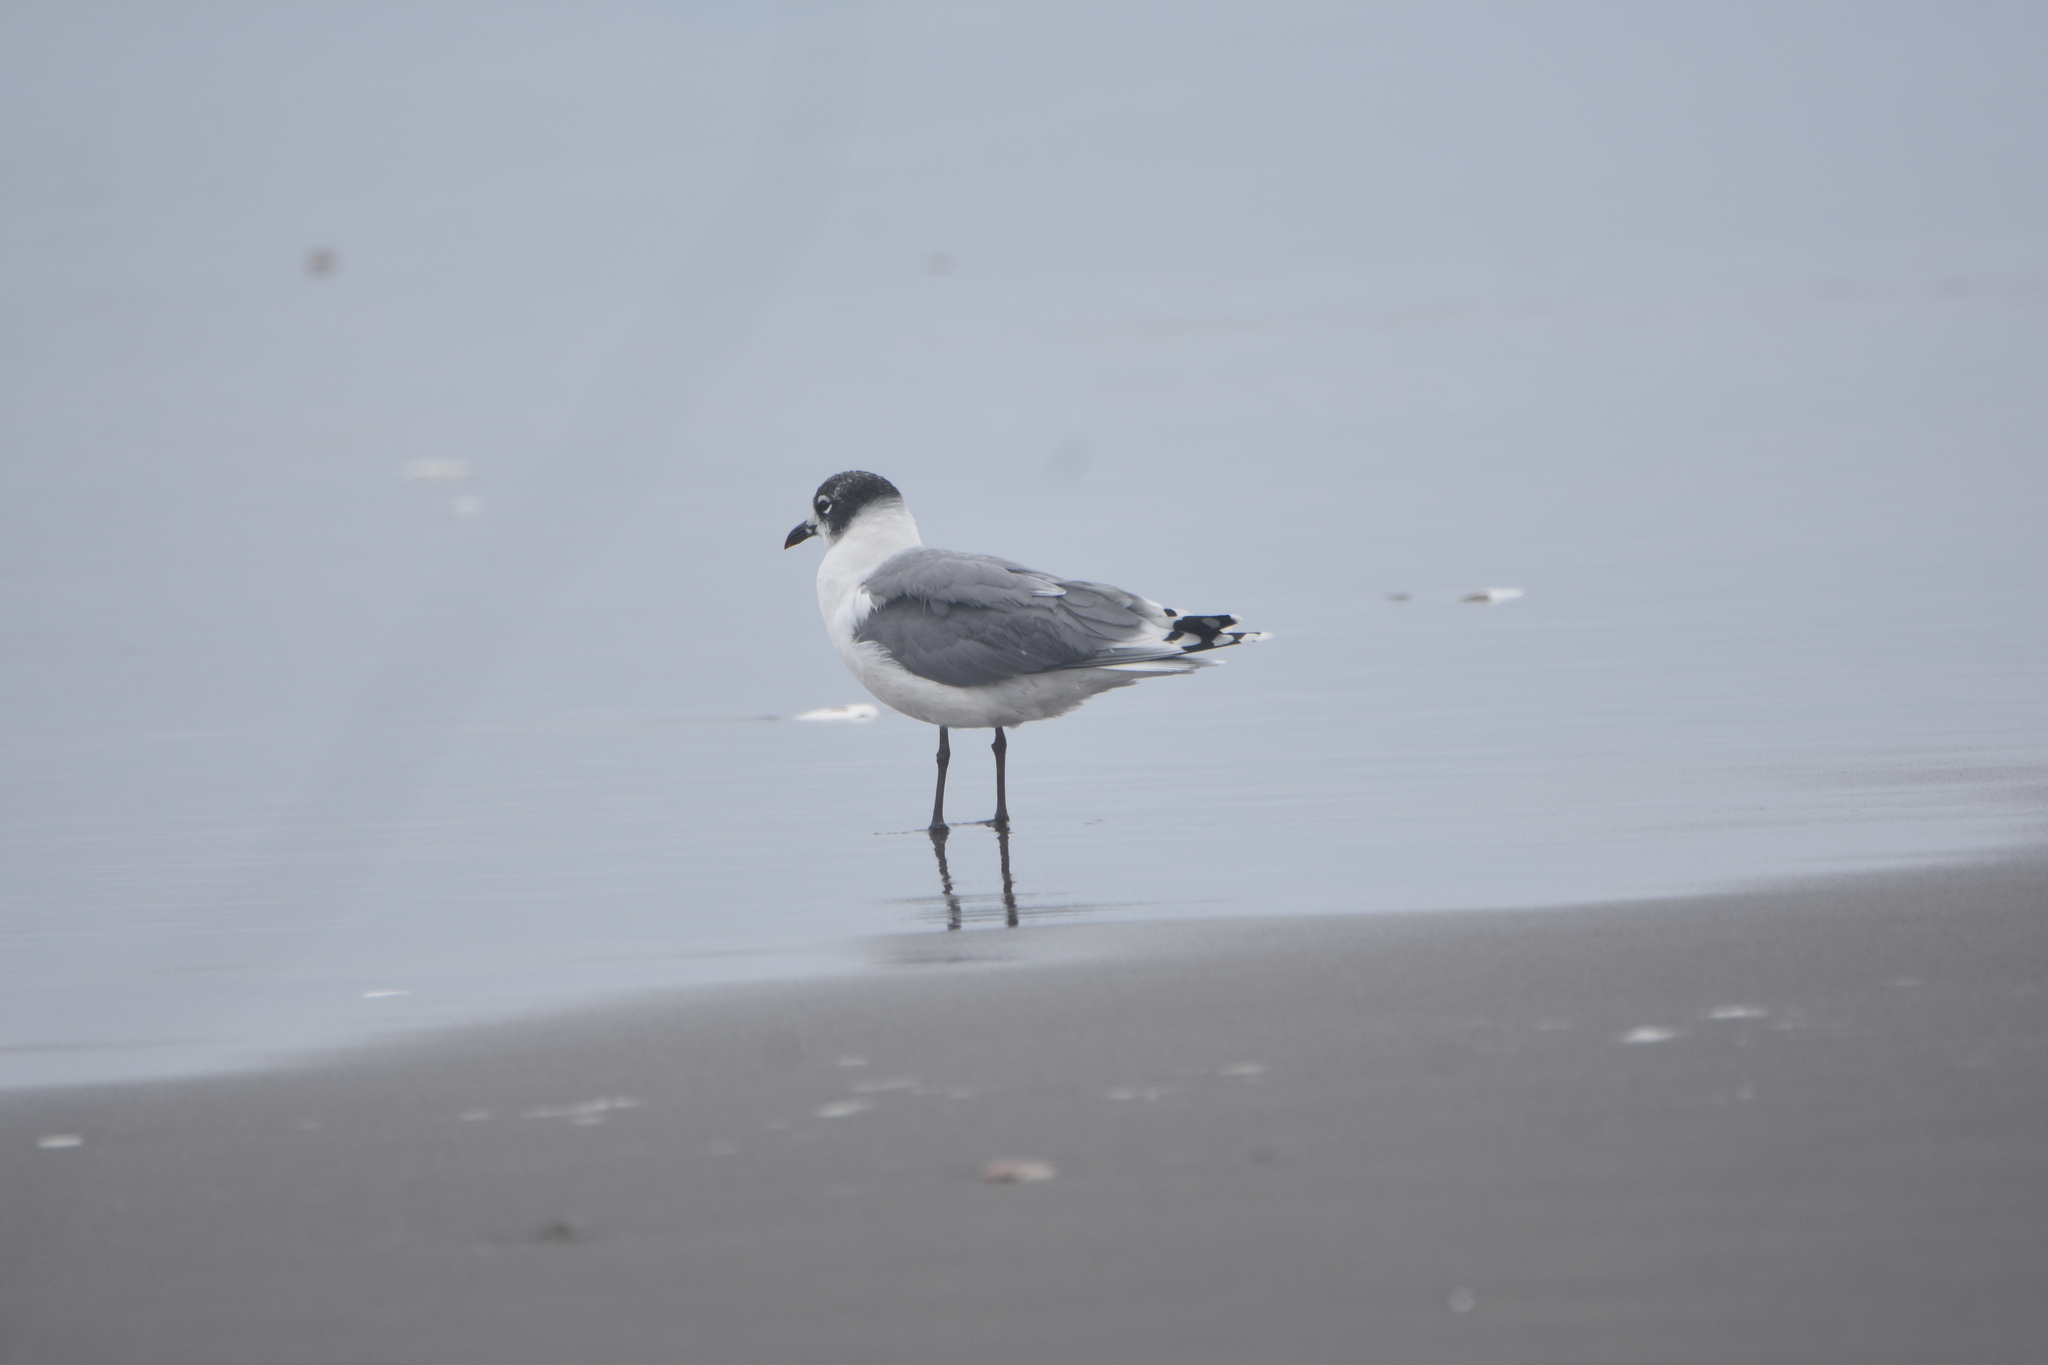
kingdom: Animalia
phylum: Chordata
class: Aves
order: Charadriiformes
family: Laridae
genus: Leucophaeus
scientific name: Leucophaeus pipixcan
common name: Franklin's gull
